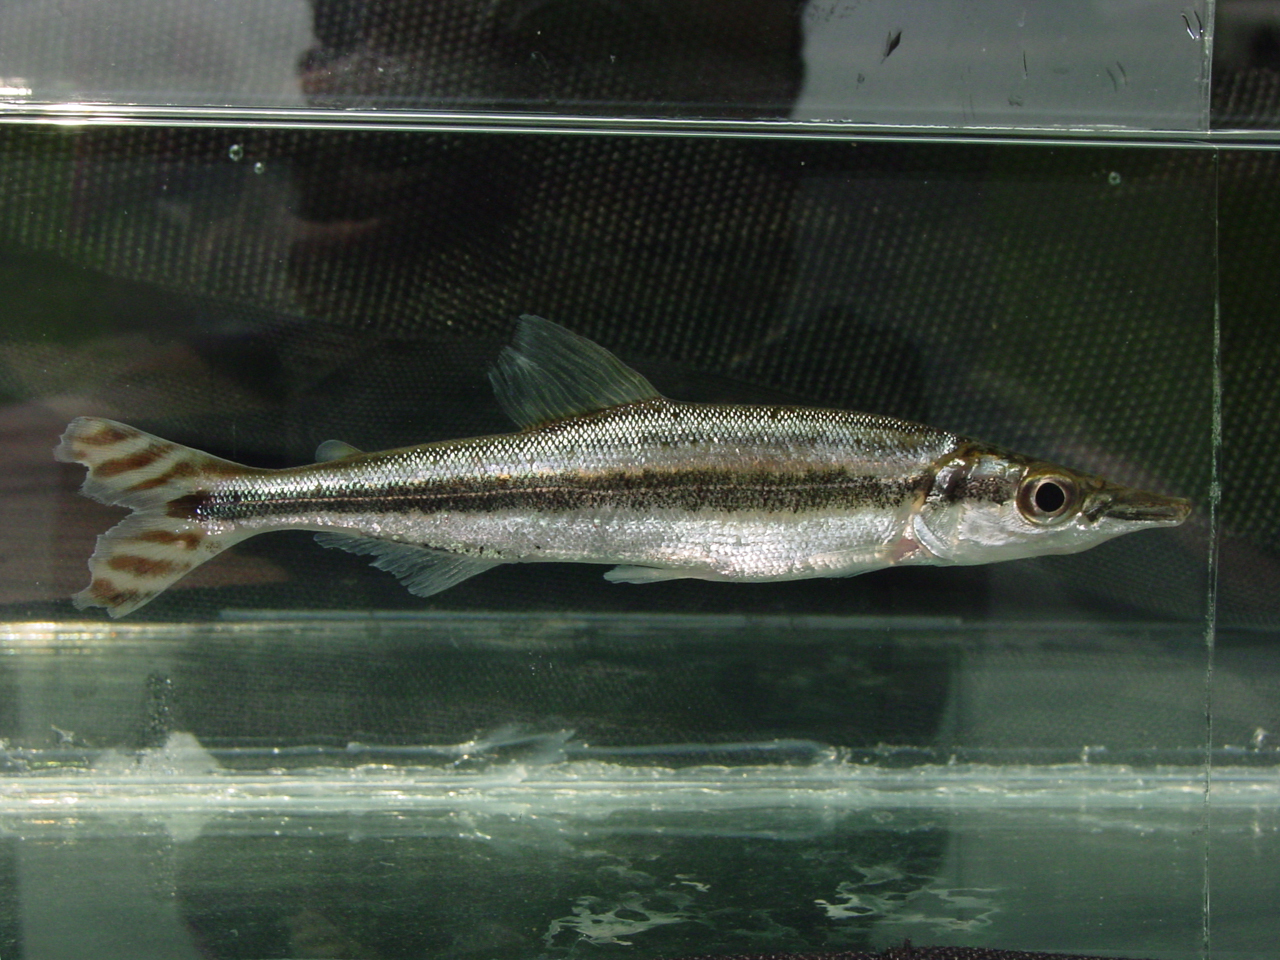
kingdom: Animalia
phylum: Chordata
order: Characiformes
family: Distichodontidae
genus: Ichthyborus
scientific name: Ichthyborus ornatus
